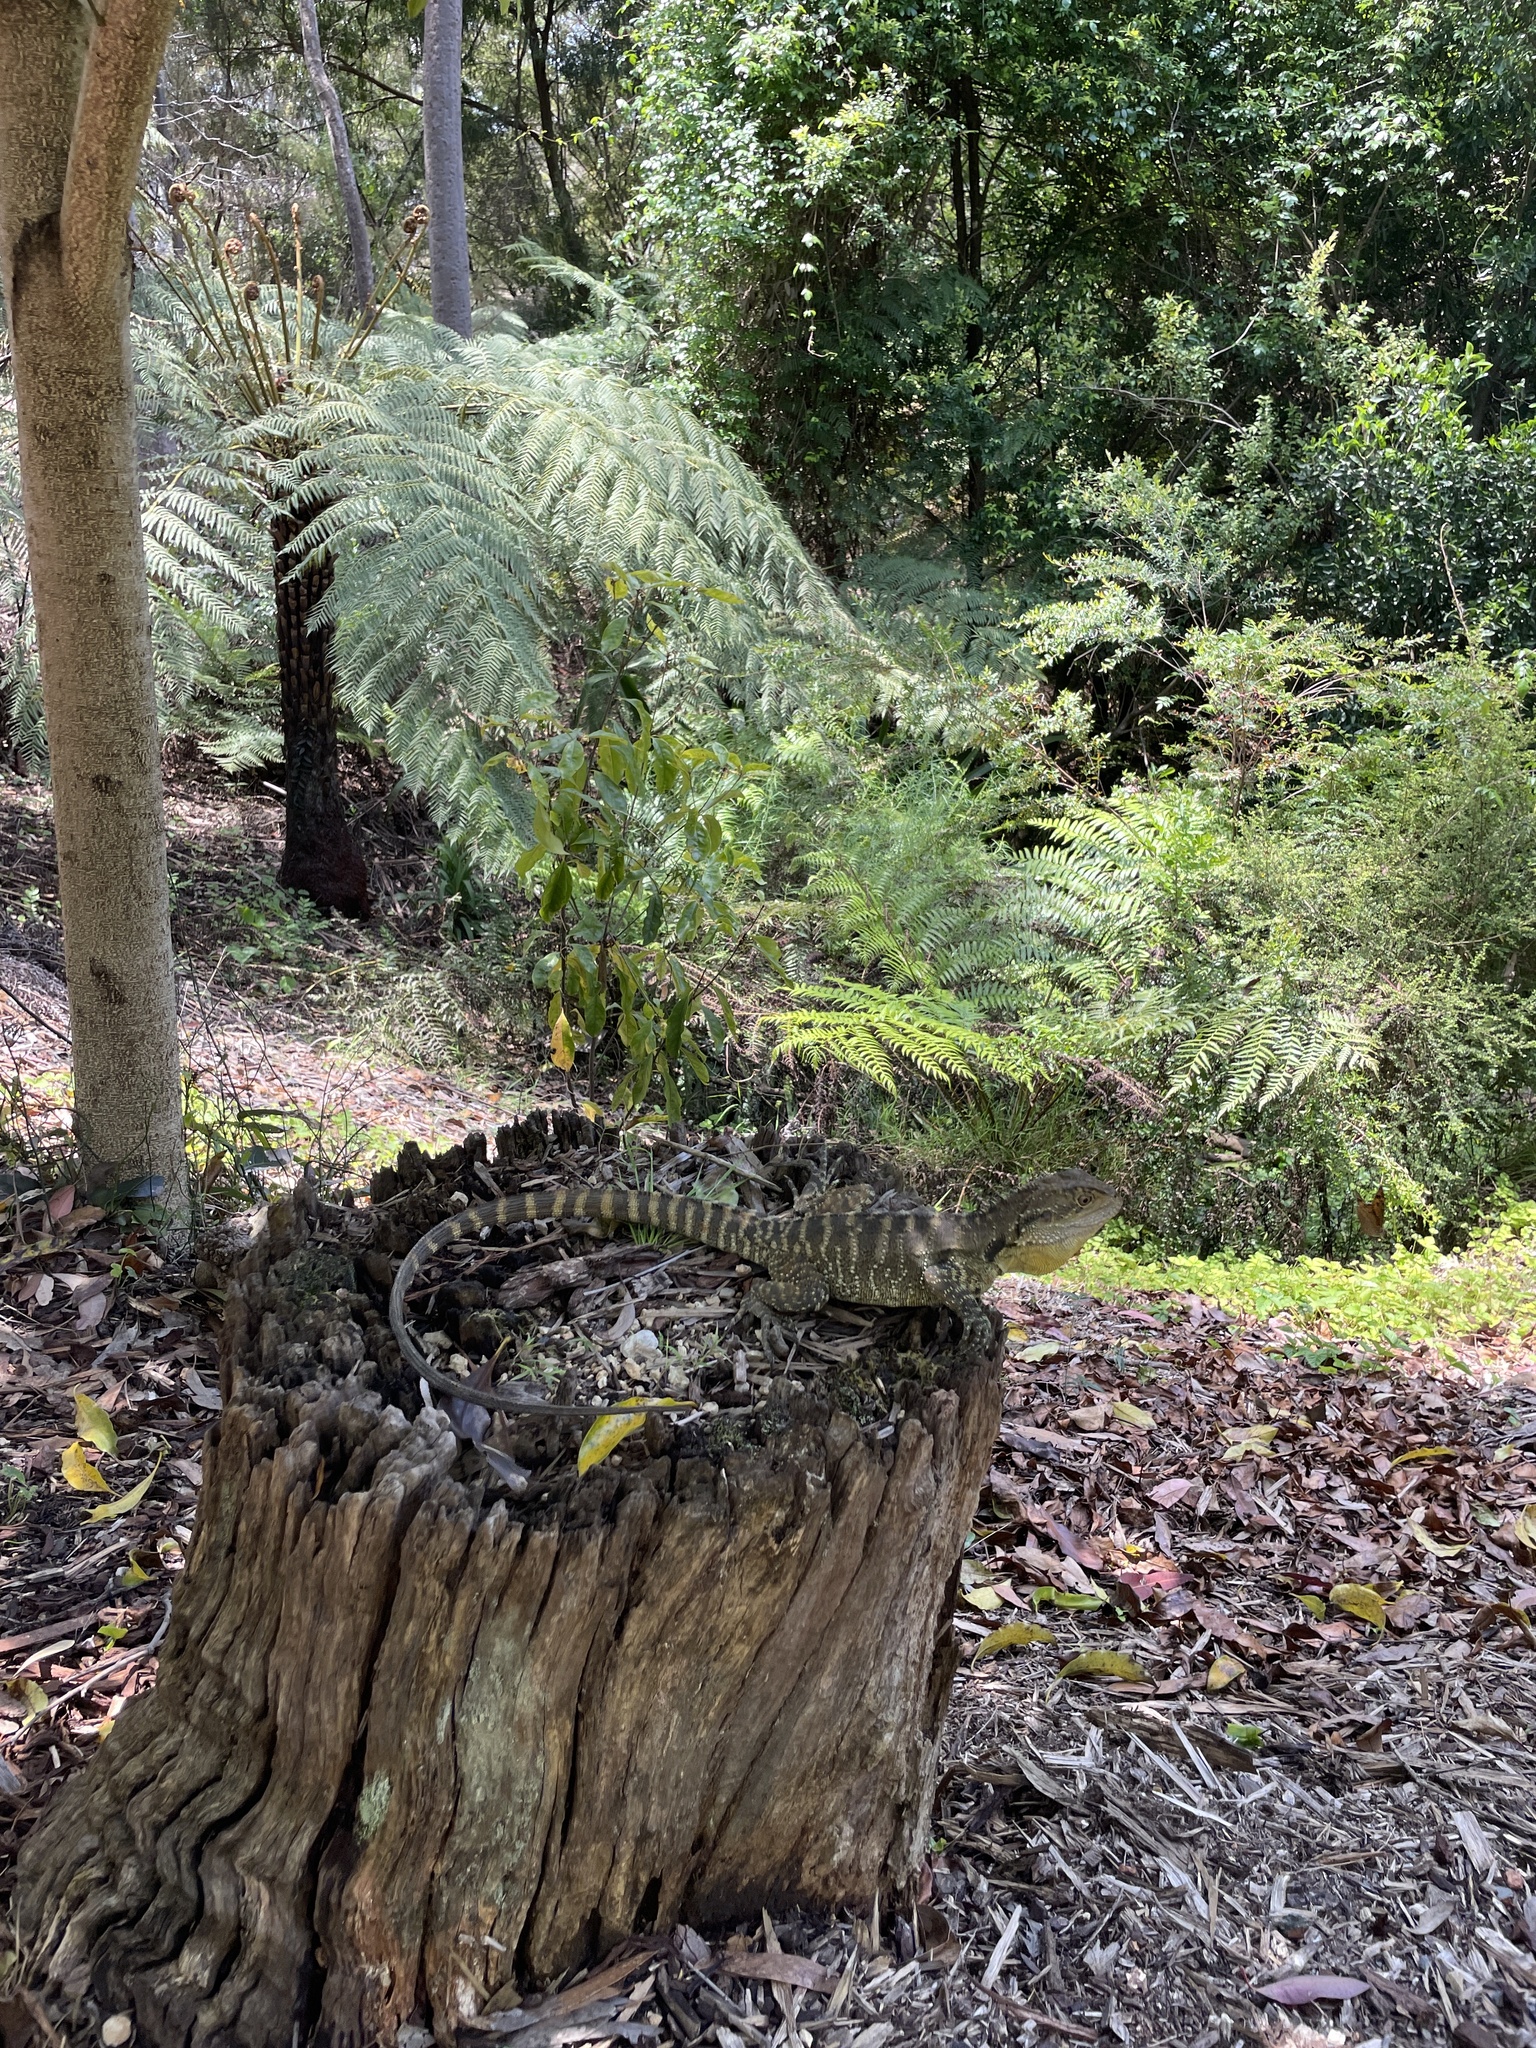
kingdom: Animalia
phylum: Chordata
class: Squamata
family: Agamidae
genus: Intellagama
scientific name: Intellagama lesueurii
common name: Eastern water dragon
